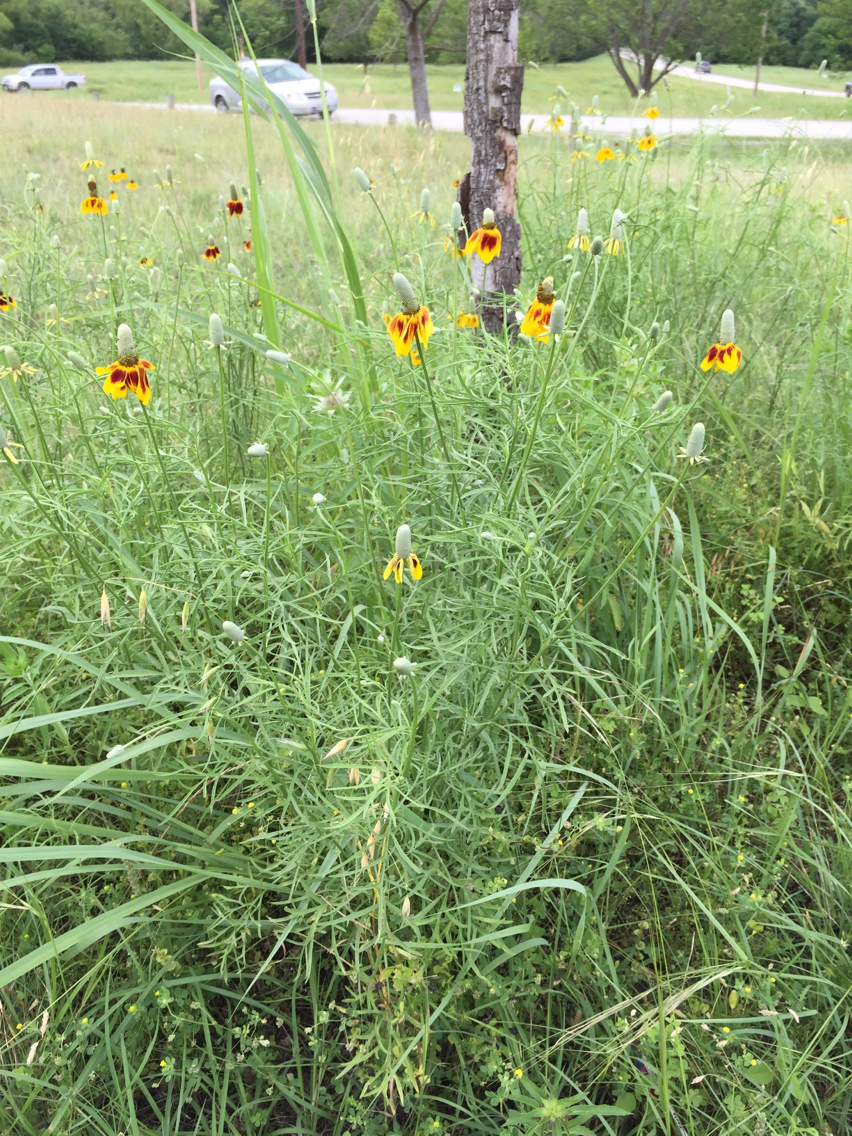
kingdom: Plantae
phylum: Tracheophyta
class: Magnoliopsida
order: Asterales
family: Asteraceae
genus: Ratibida
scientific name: Ratibida columnifera
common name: Prairie coneflower
